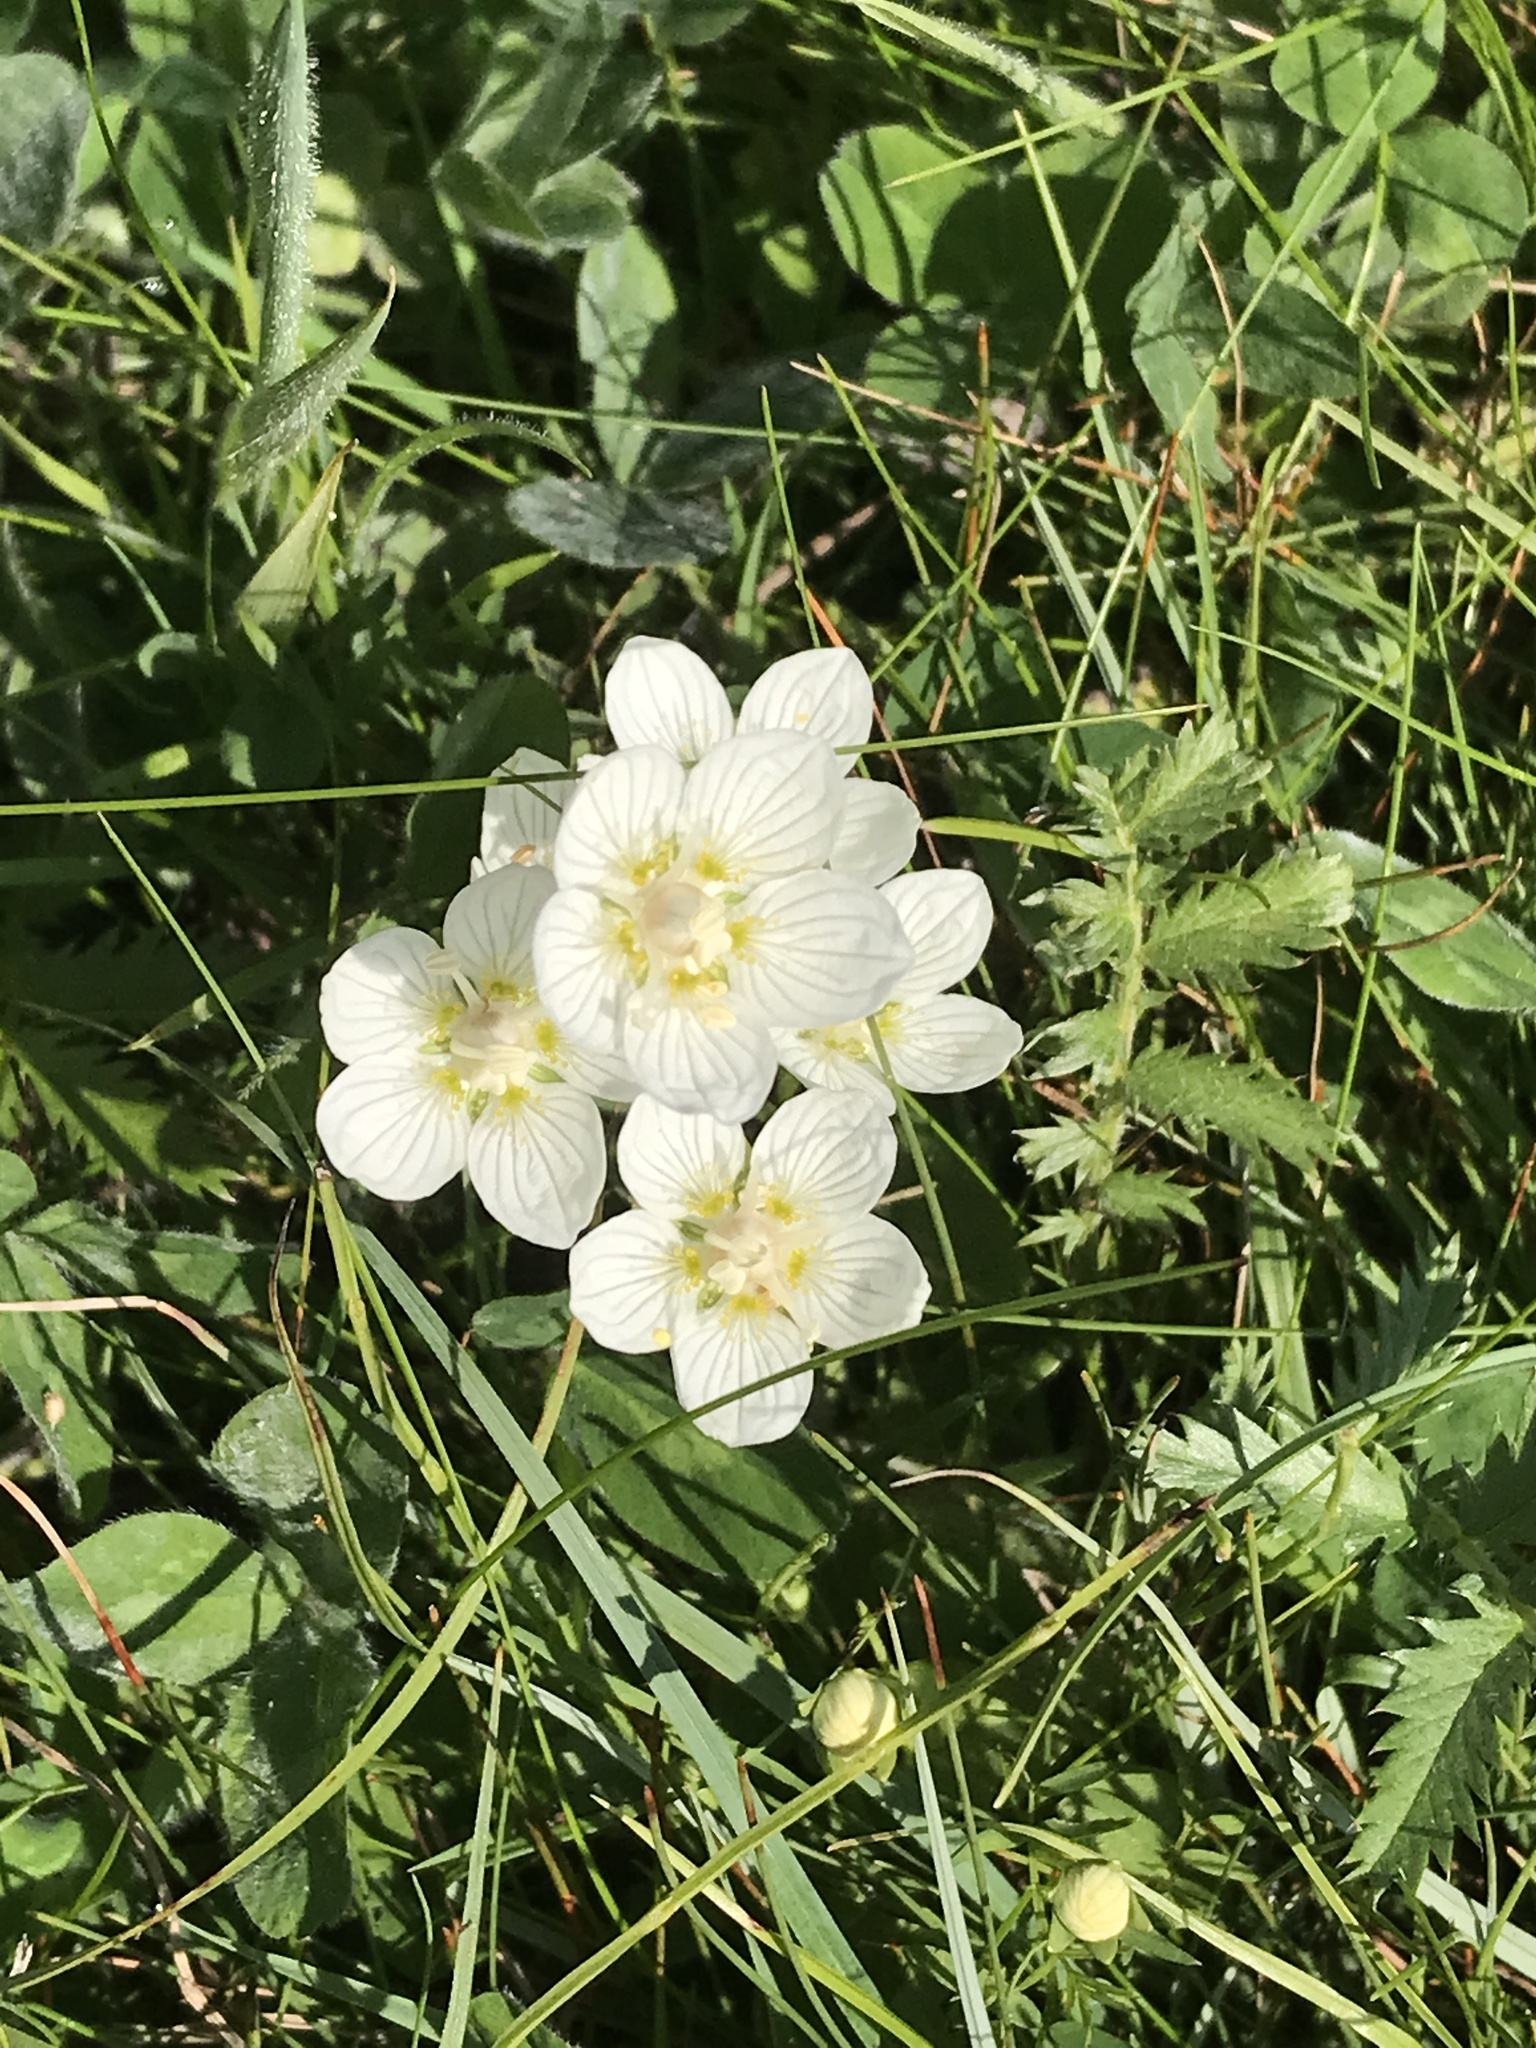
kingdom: Plantae
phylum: Tracheophyta
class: Magnoliopsida
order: Celastrales
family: Parnassiaceae
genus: Parnassia
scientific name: Parnassia palustris
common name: Grass-of-parnassus
